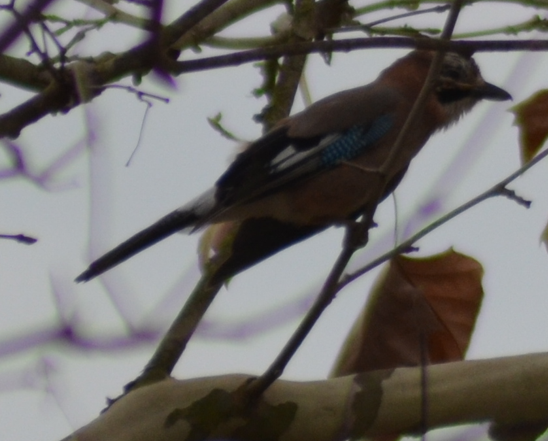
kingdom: Animalia
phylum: Chordata
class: Aves
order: Passeriformes
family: Corvidae
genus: Garrulus
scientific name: Garrulus glandarius
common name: Eurasian jay
